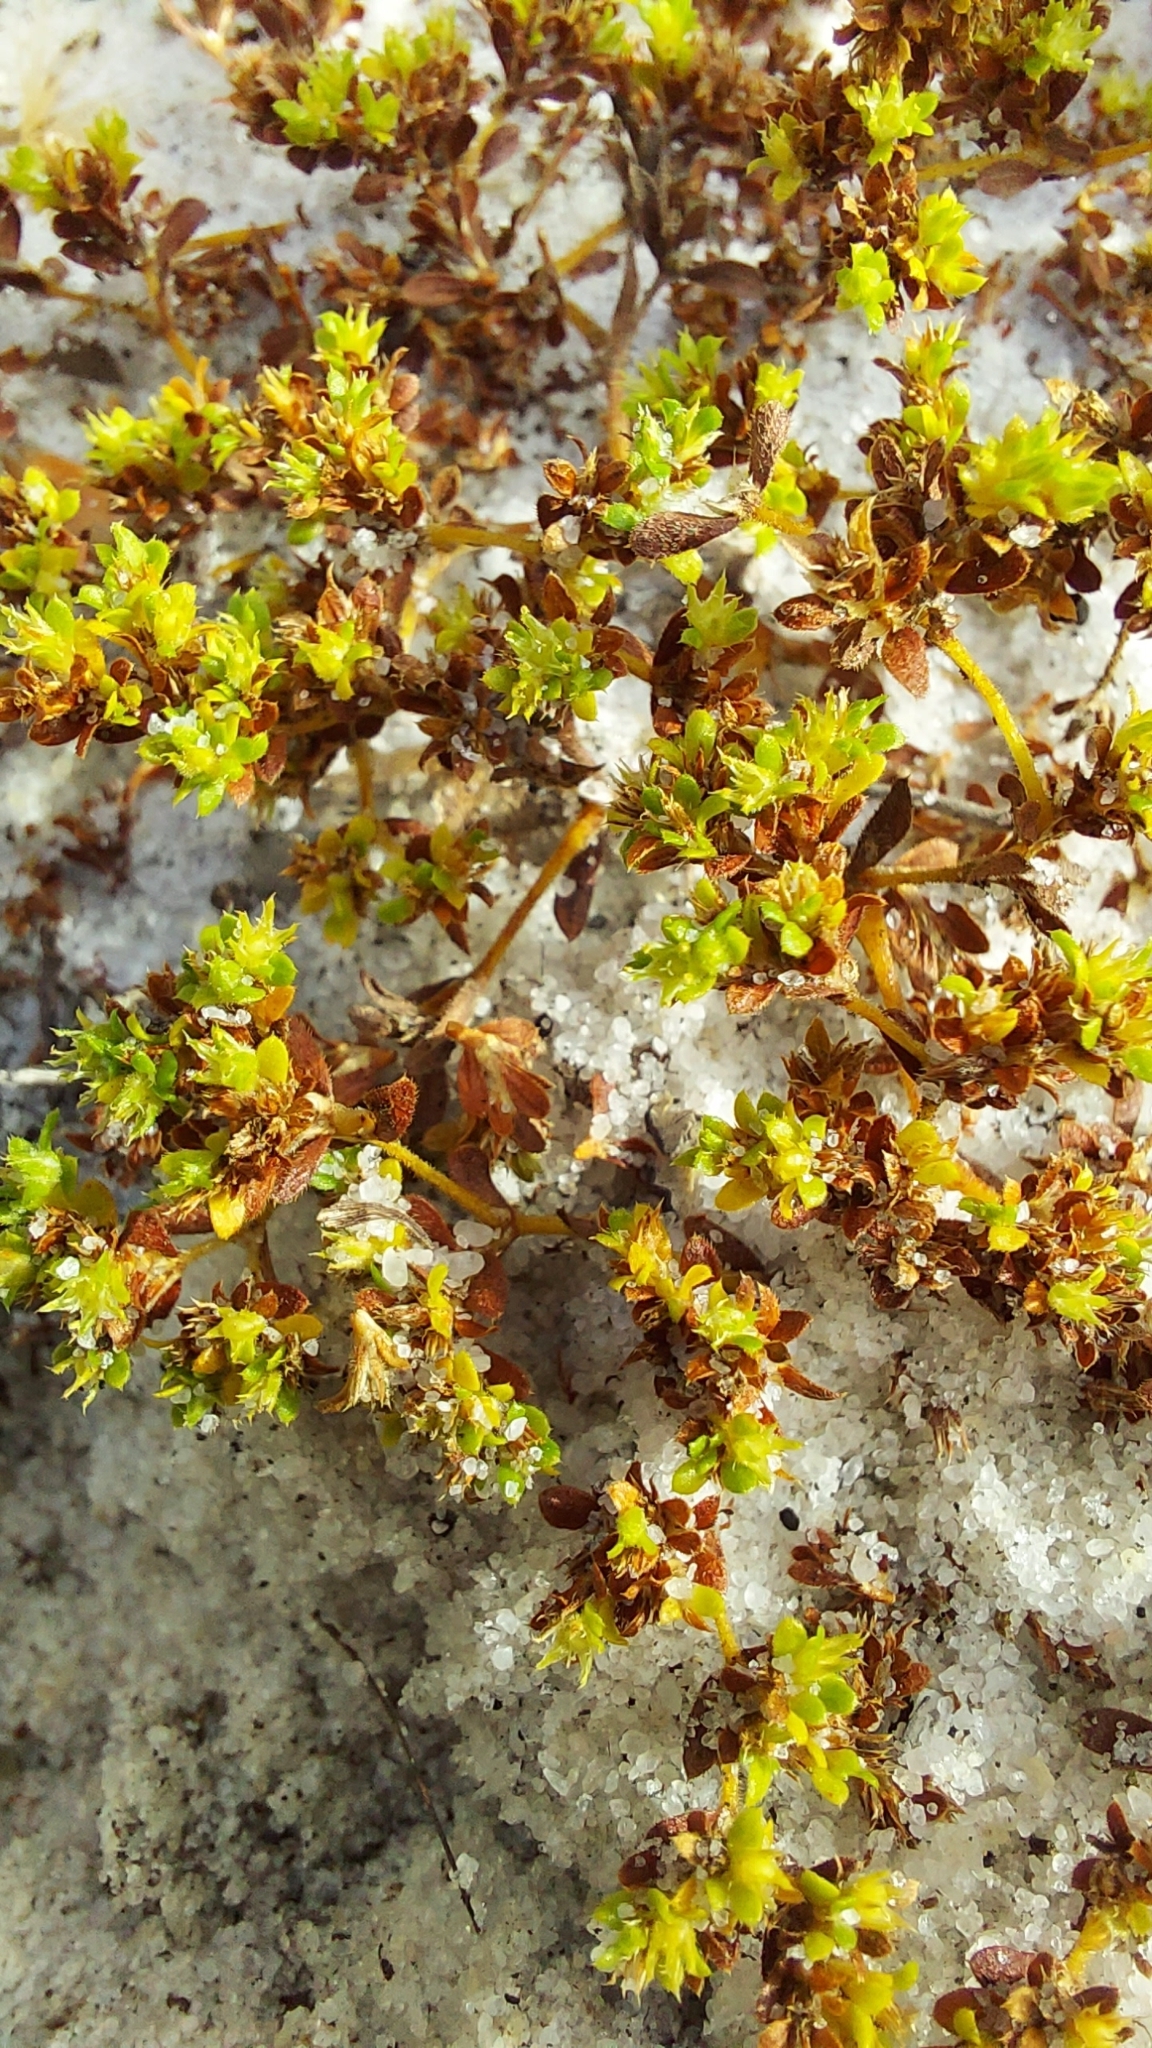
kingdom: Plantae
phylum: Tracheophyta
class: Magnoliopsida
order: Caryophyllales
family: Caryophyllaceae
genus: Paronychia
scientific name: Paronychia herniarioides
